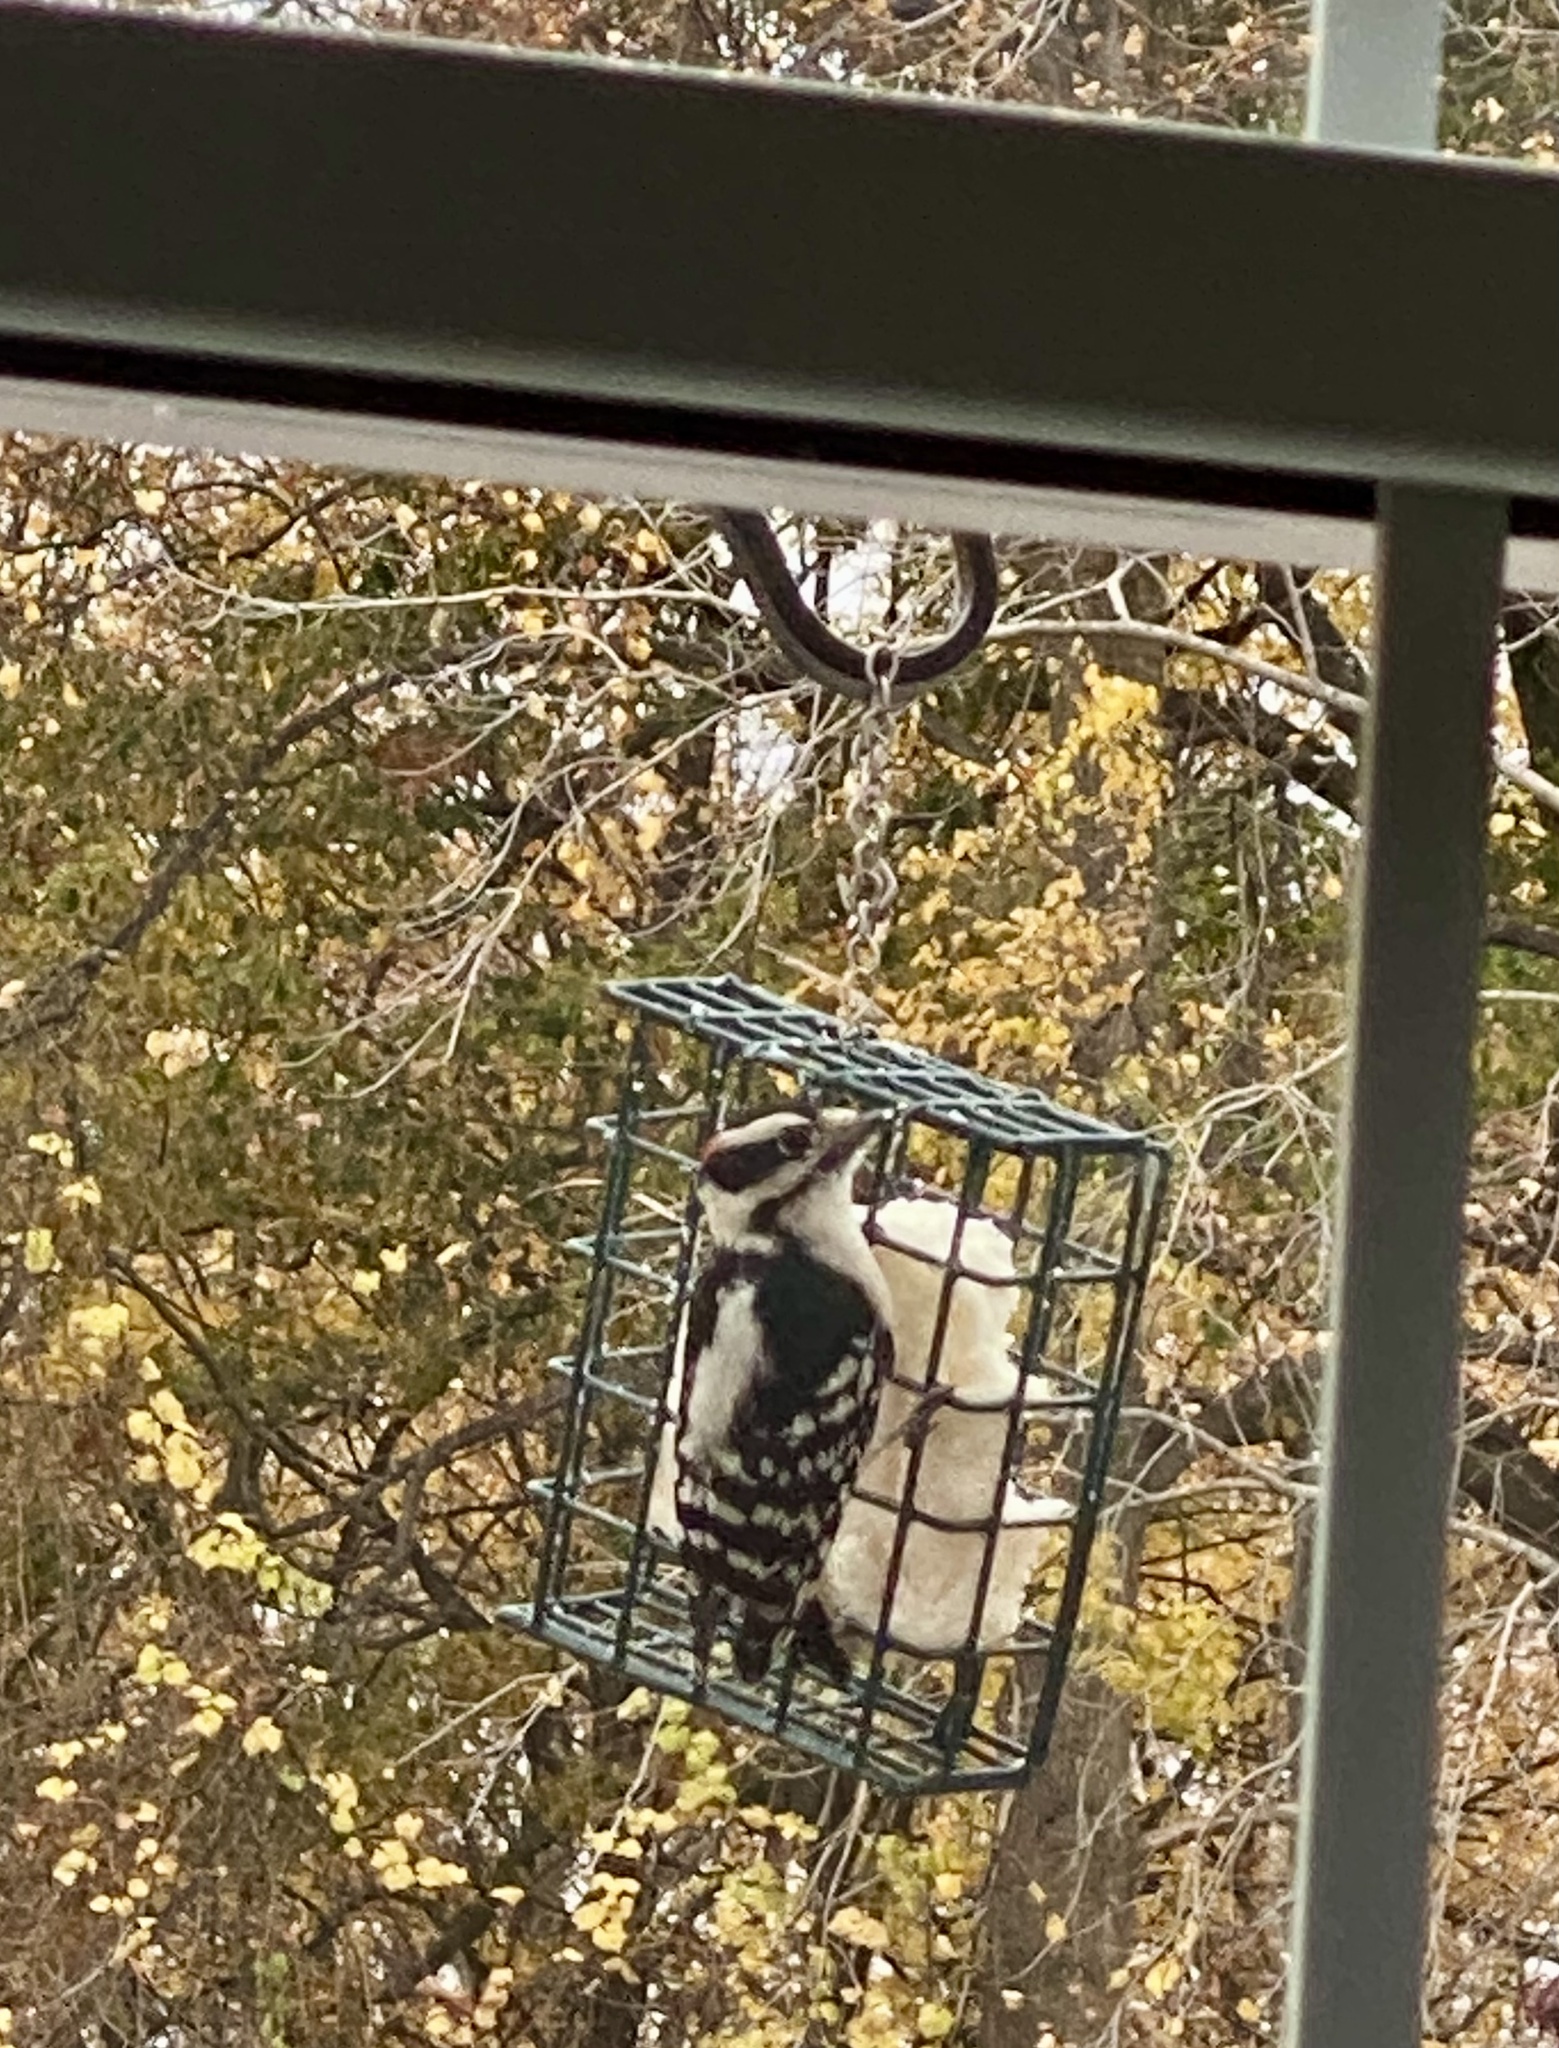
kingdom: Animalia
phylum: Chordata
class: Aves
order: Piciformes
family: Picidae
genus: Dryobates
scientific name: Dryobates pubescens
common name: Downy woodpecker
